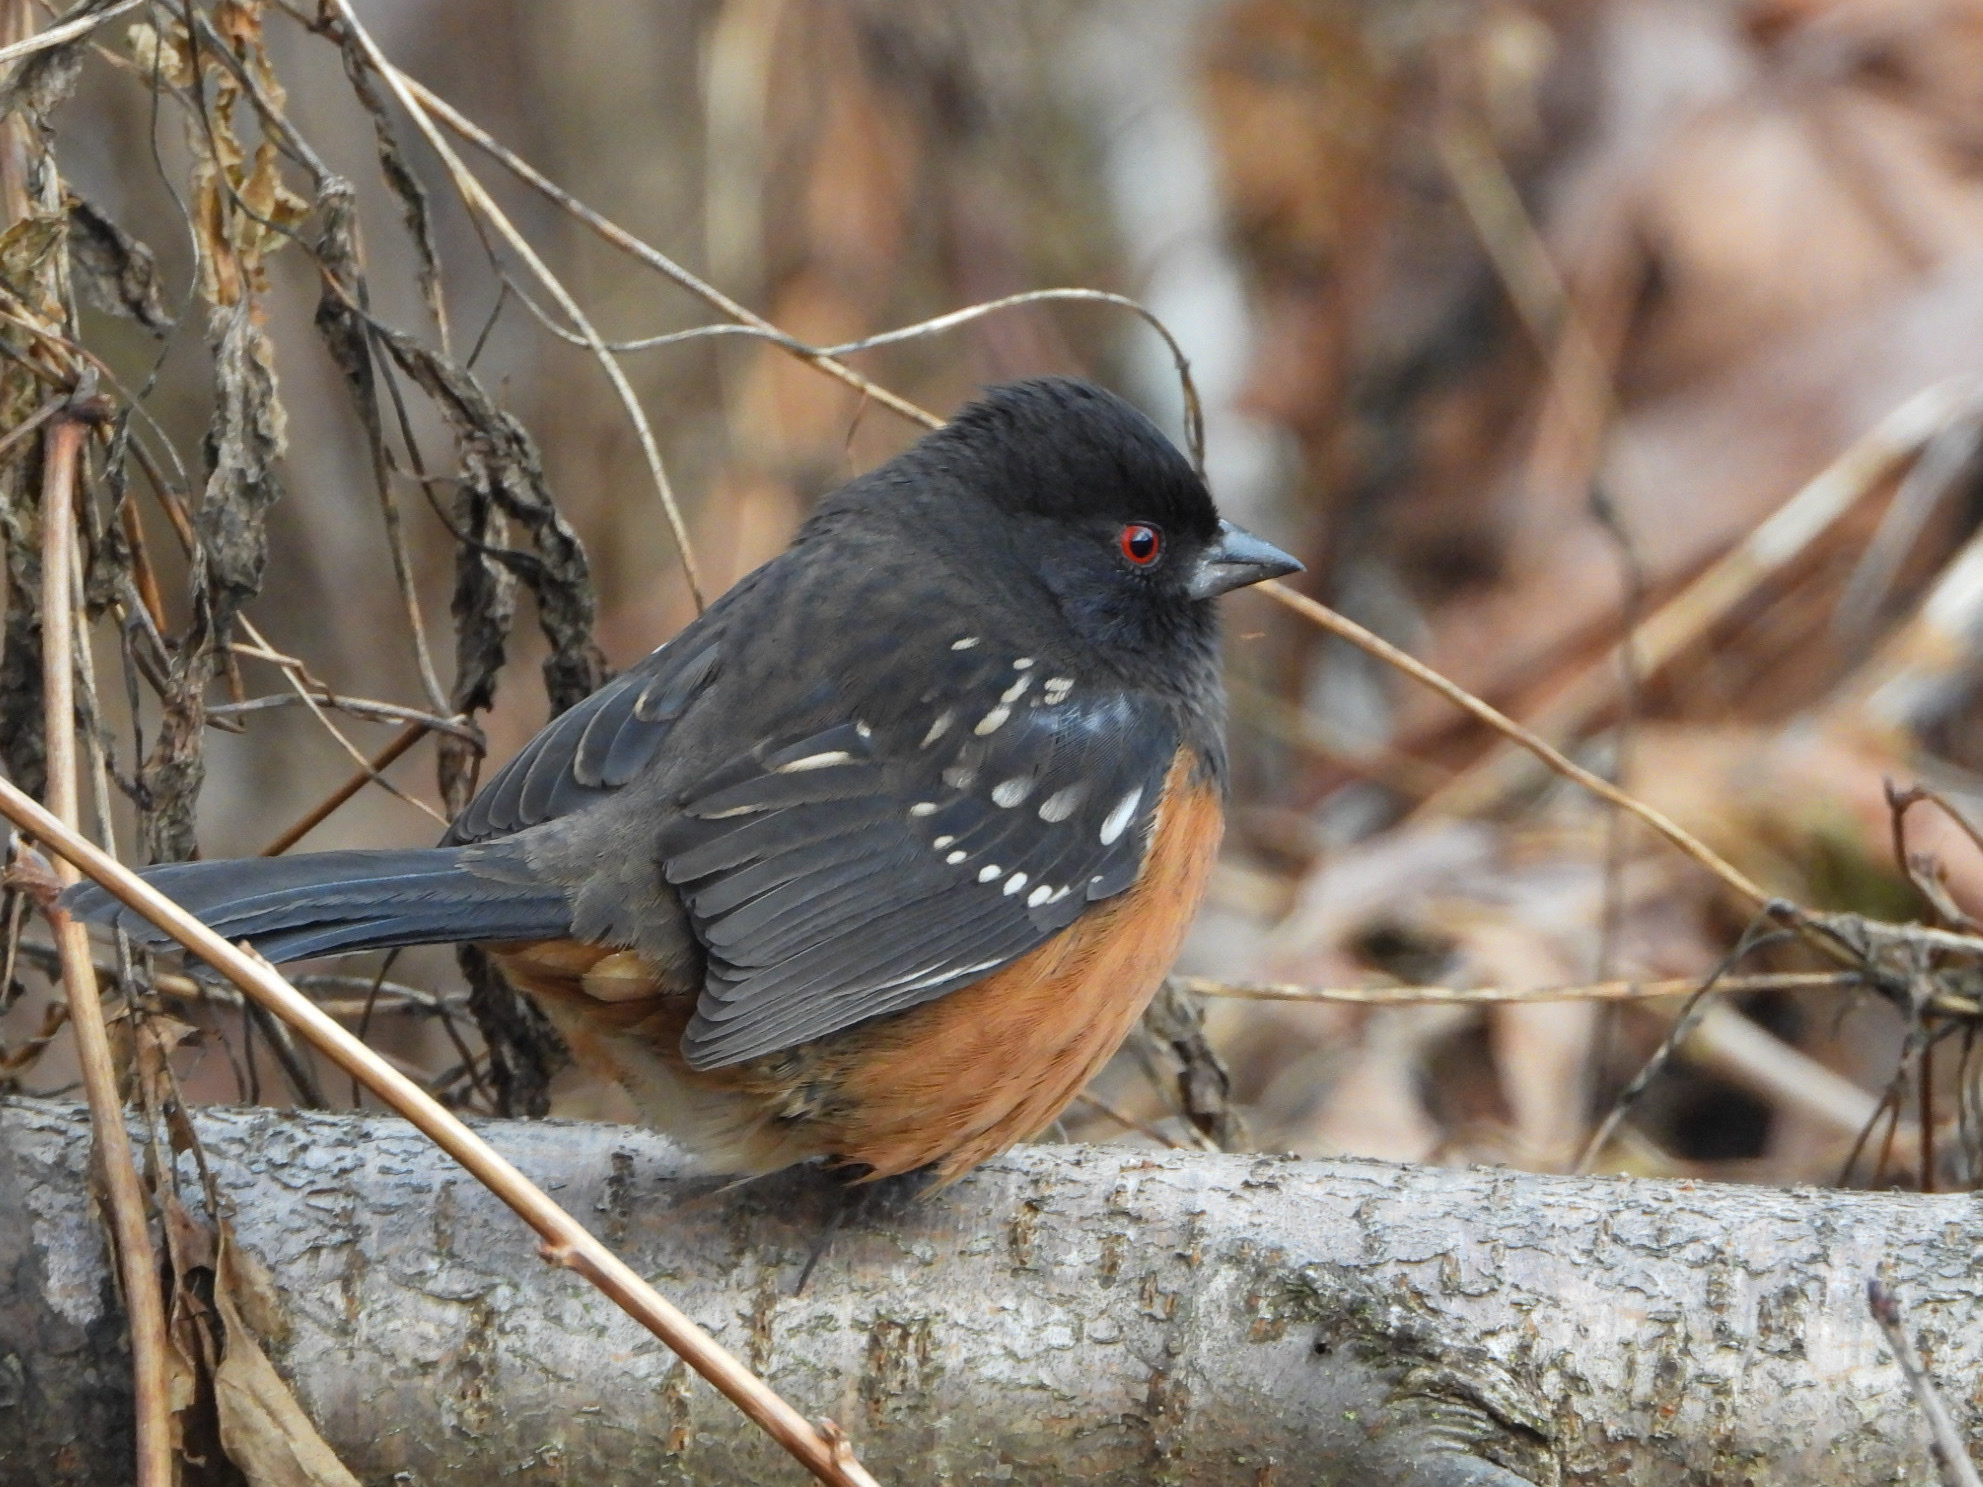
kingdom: Animalia
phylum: Chordata
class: Aves
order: Passeriformes
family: Passerellidae
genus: Pipilo
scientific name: Pipilo maculatus
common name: Spotted towhee
